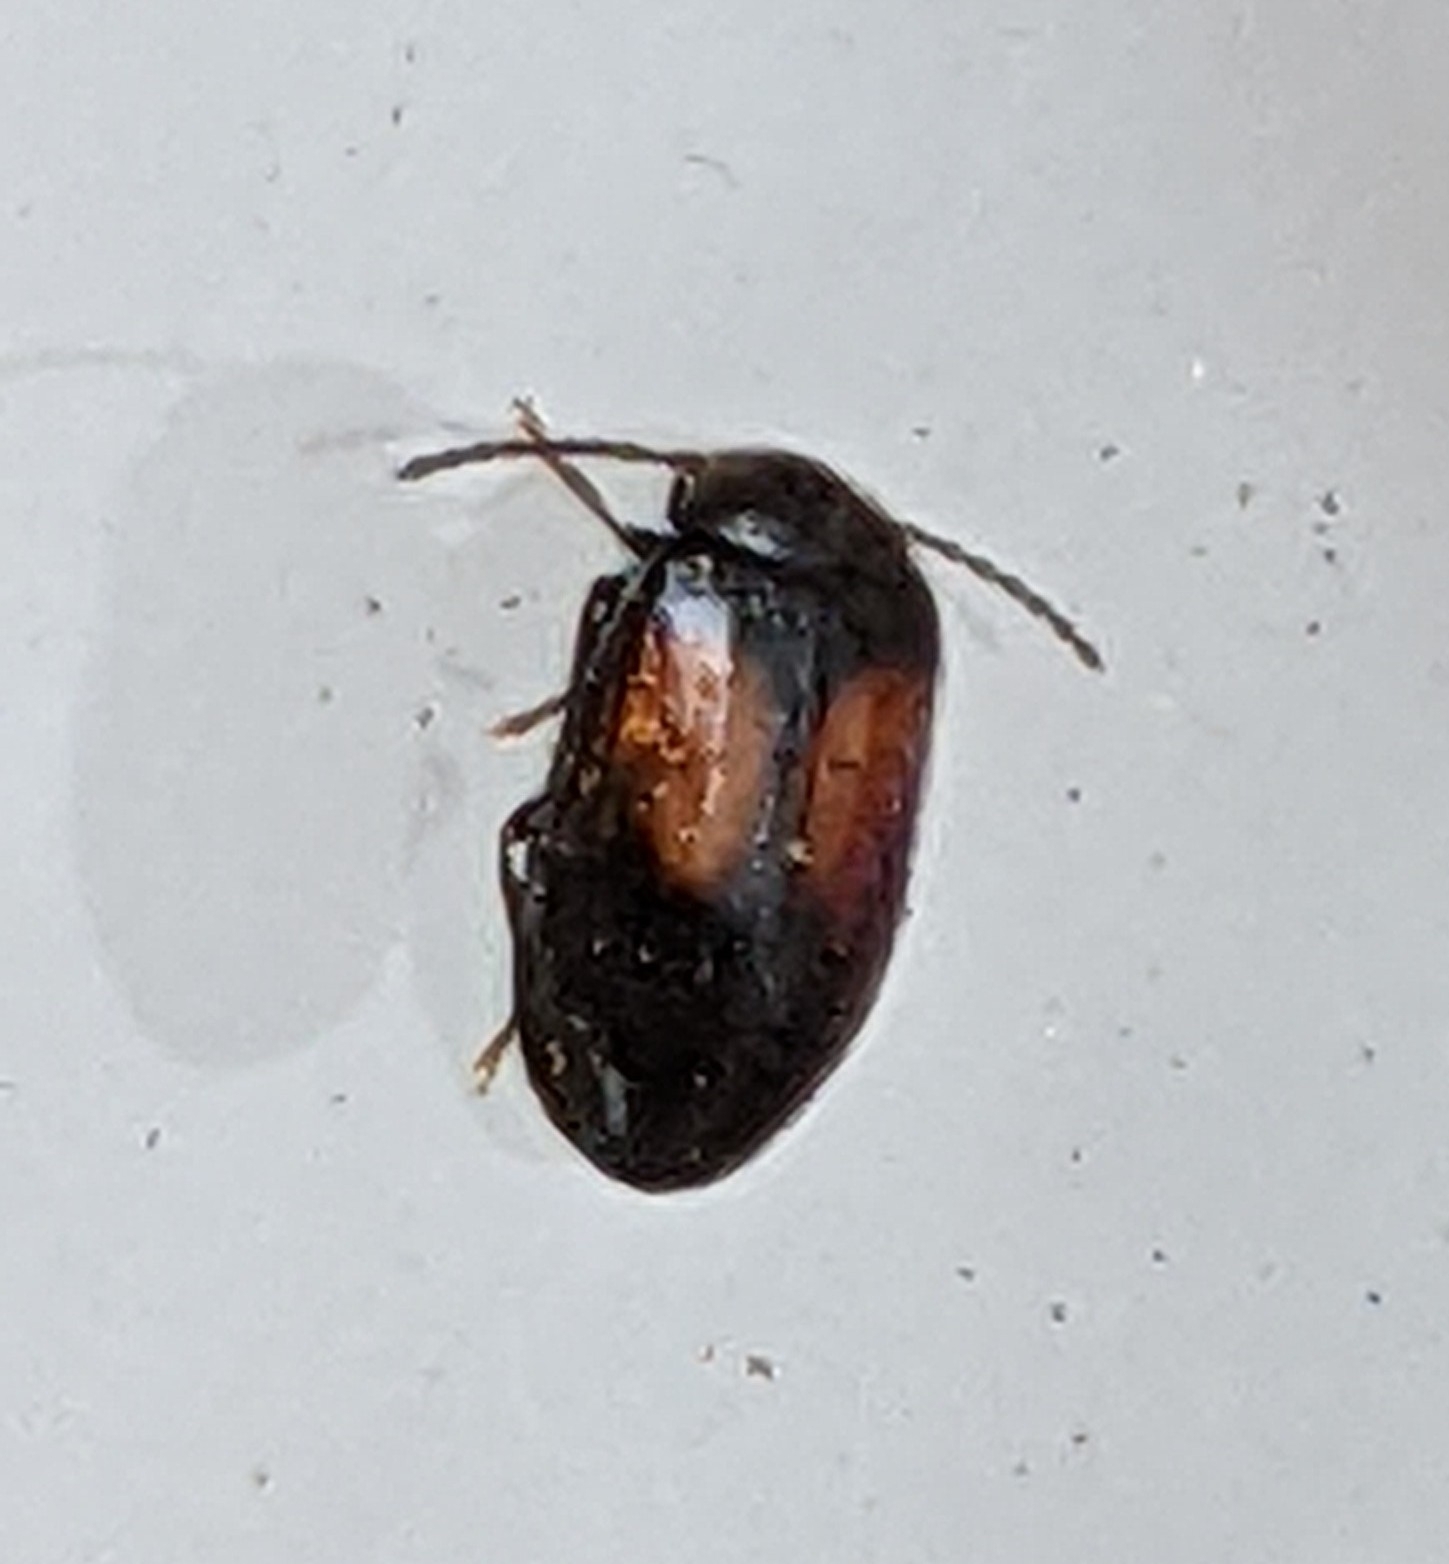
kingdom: Animalia
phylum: Arthropoda
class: Insecta
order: Coleoptera
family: Scirtidae
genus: Cyphon
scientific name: Cyphon concinnus
